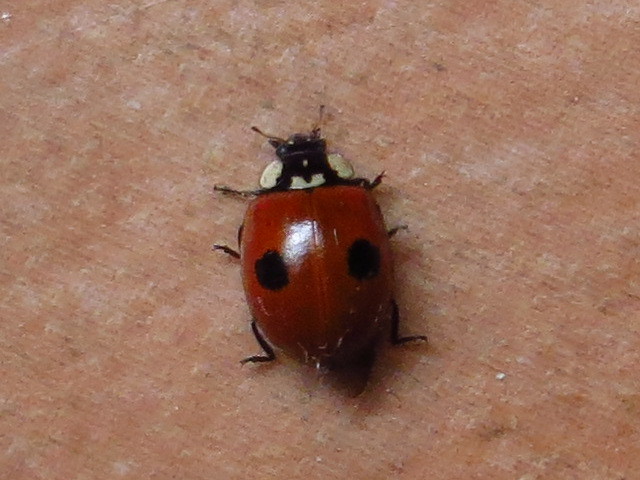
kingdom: Animalia
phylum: Arthropoda
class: Insecta
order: Coleoptera
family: Coccinellidae
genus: Adalia
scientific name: Adalia bipunctata
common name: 2-spot ladybird
